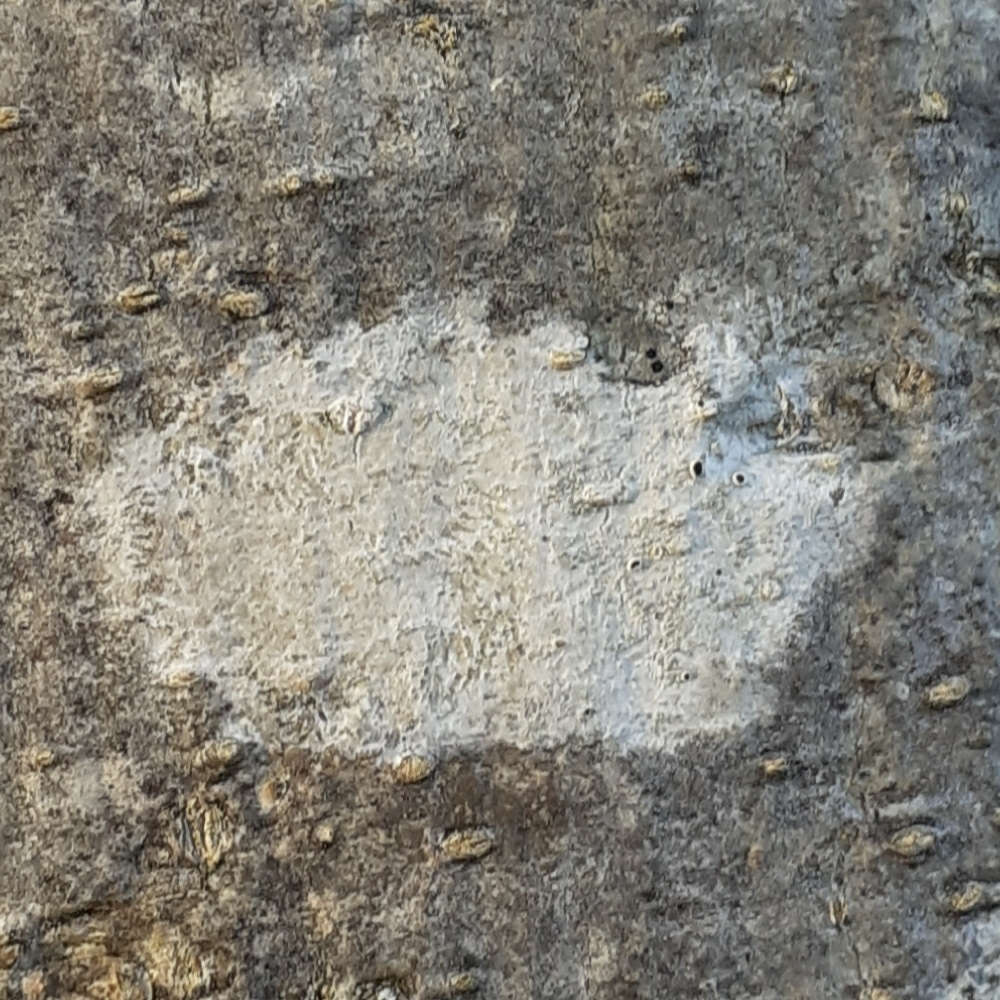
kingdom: Fungi
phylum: Ascomycota
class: Lecanoromycetes
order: Ostropales
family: Phlyctidaceae
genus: Phlyctis
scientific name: Phlyctis argena
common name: Whitewash lichen
